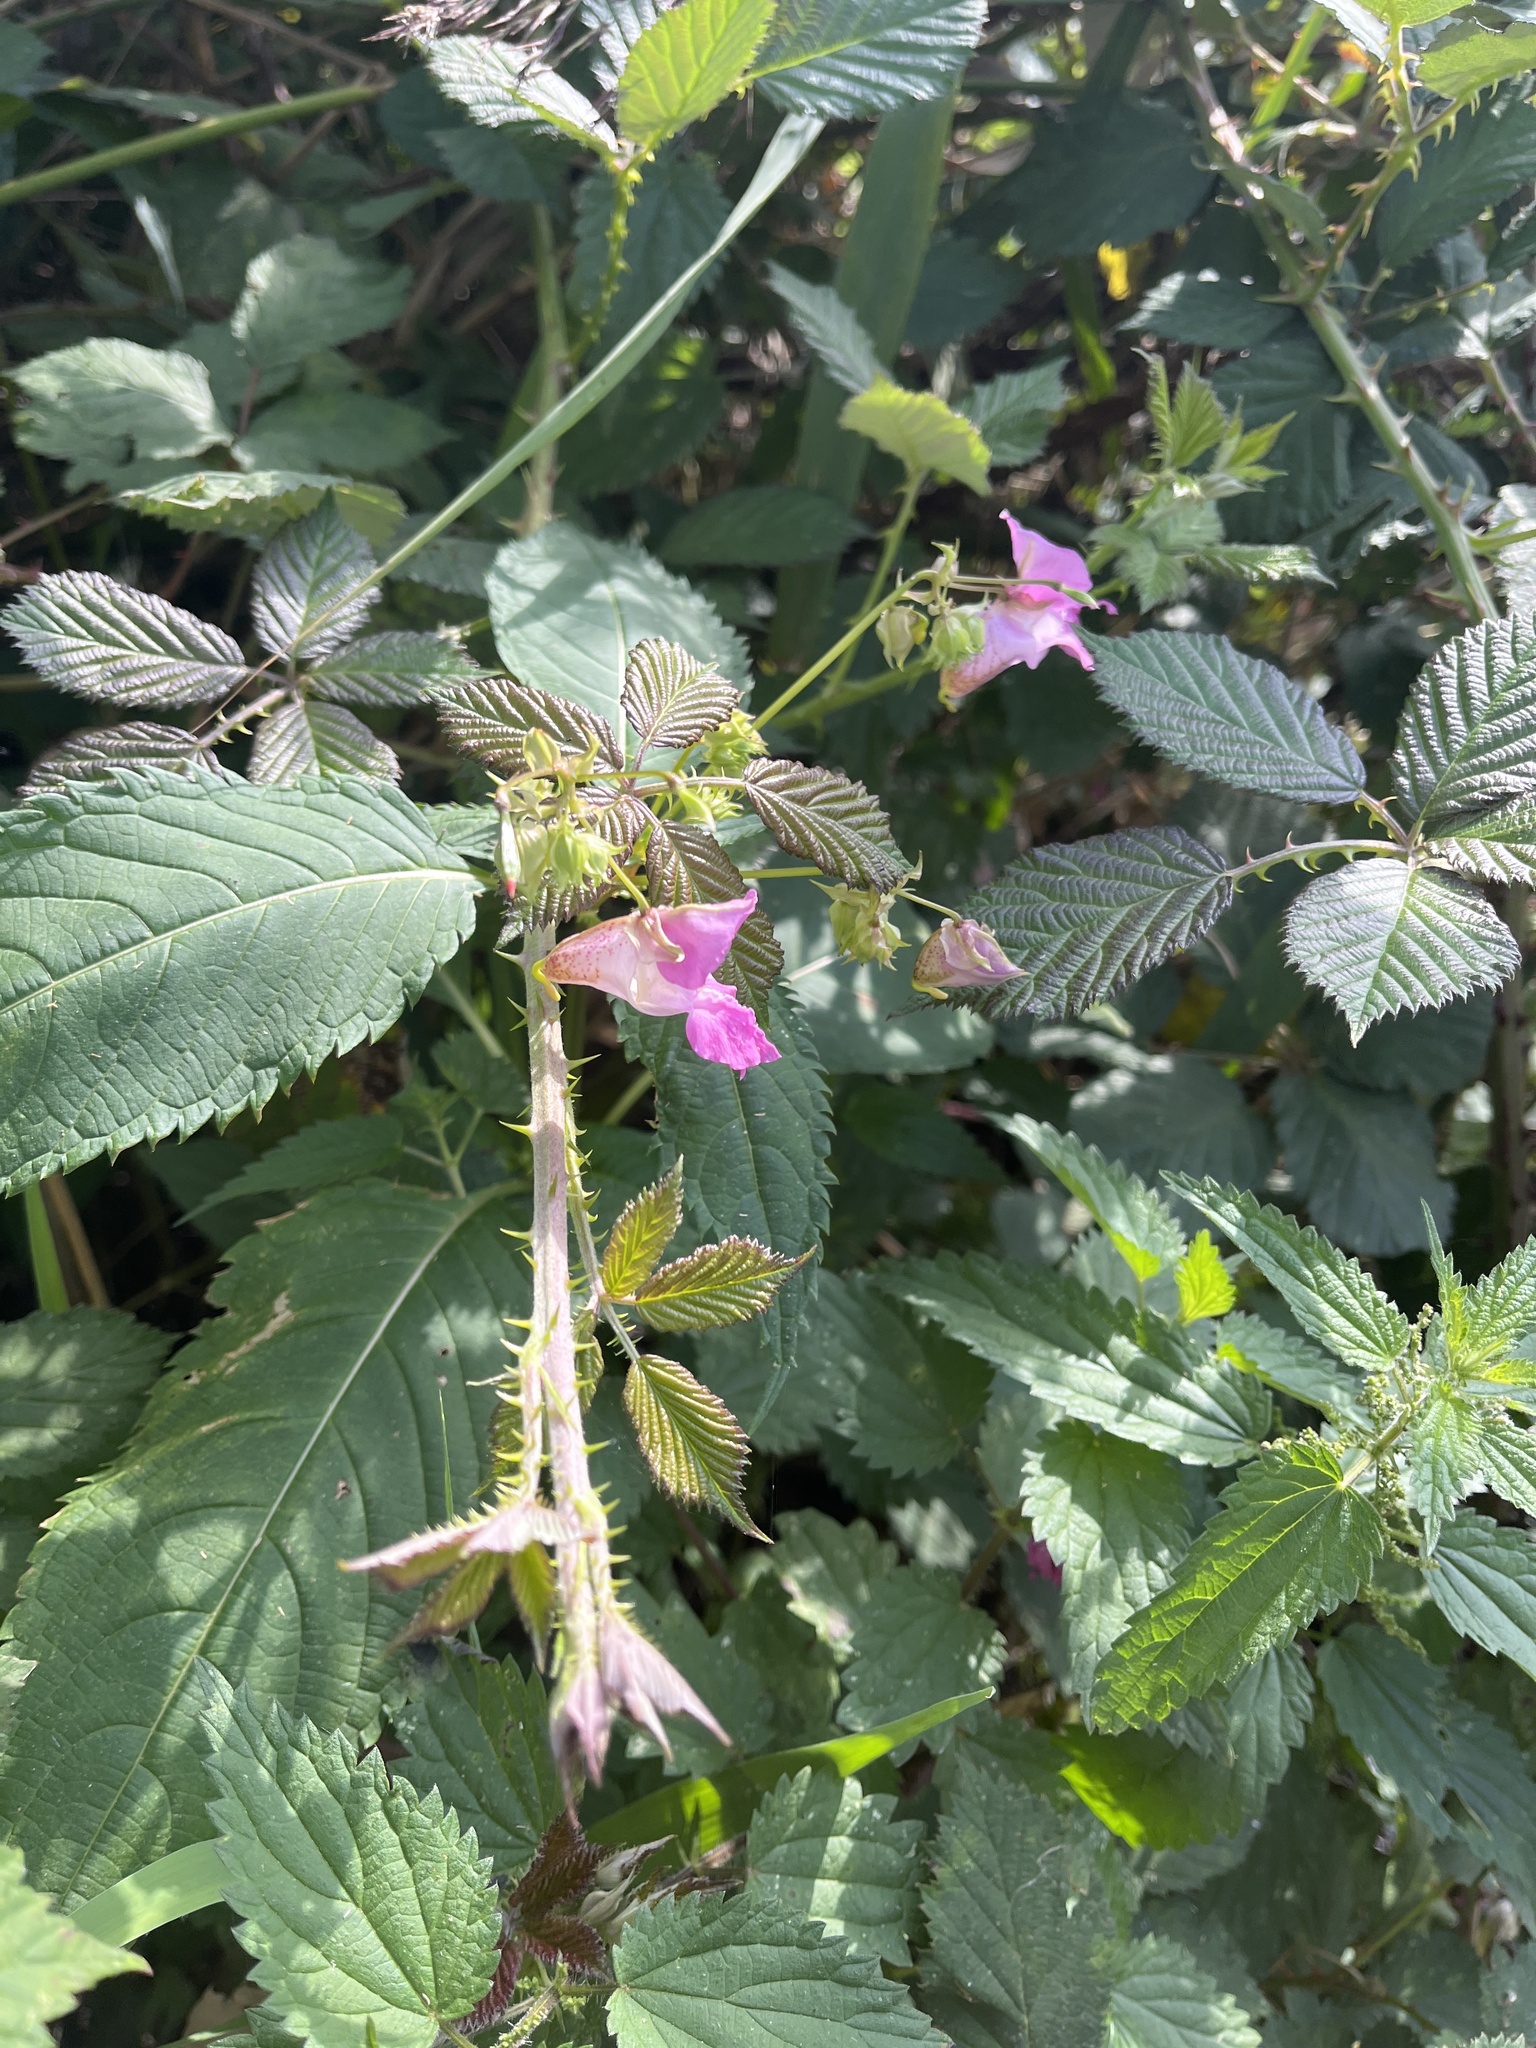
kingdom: Plantae
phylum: Tracheophyta
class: Magnoliopsida
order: Ericales
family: Balsaminaceae
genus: Impatiens
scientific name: Impatiens glandulifera
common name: Himalayan balsam
